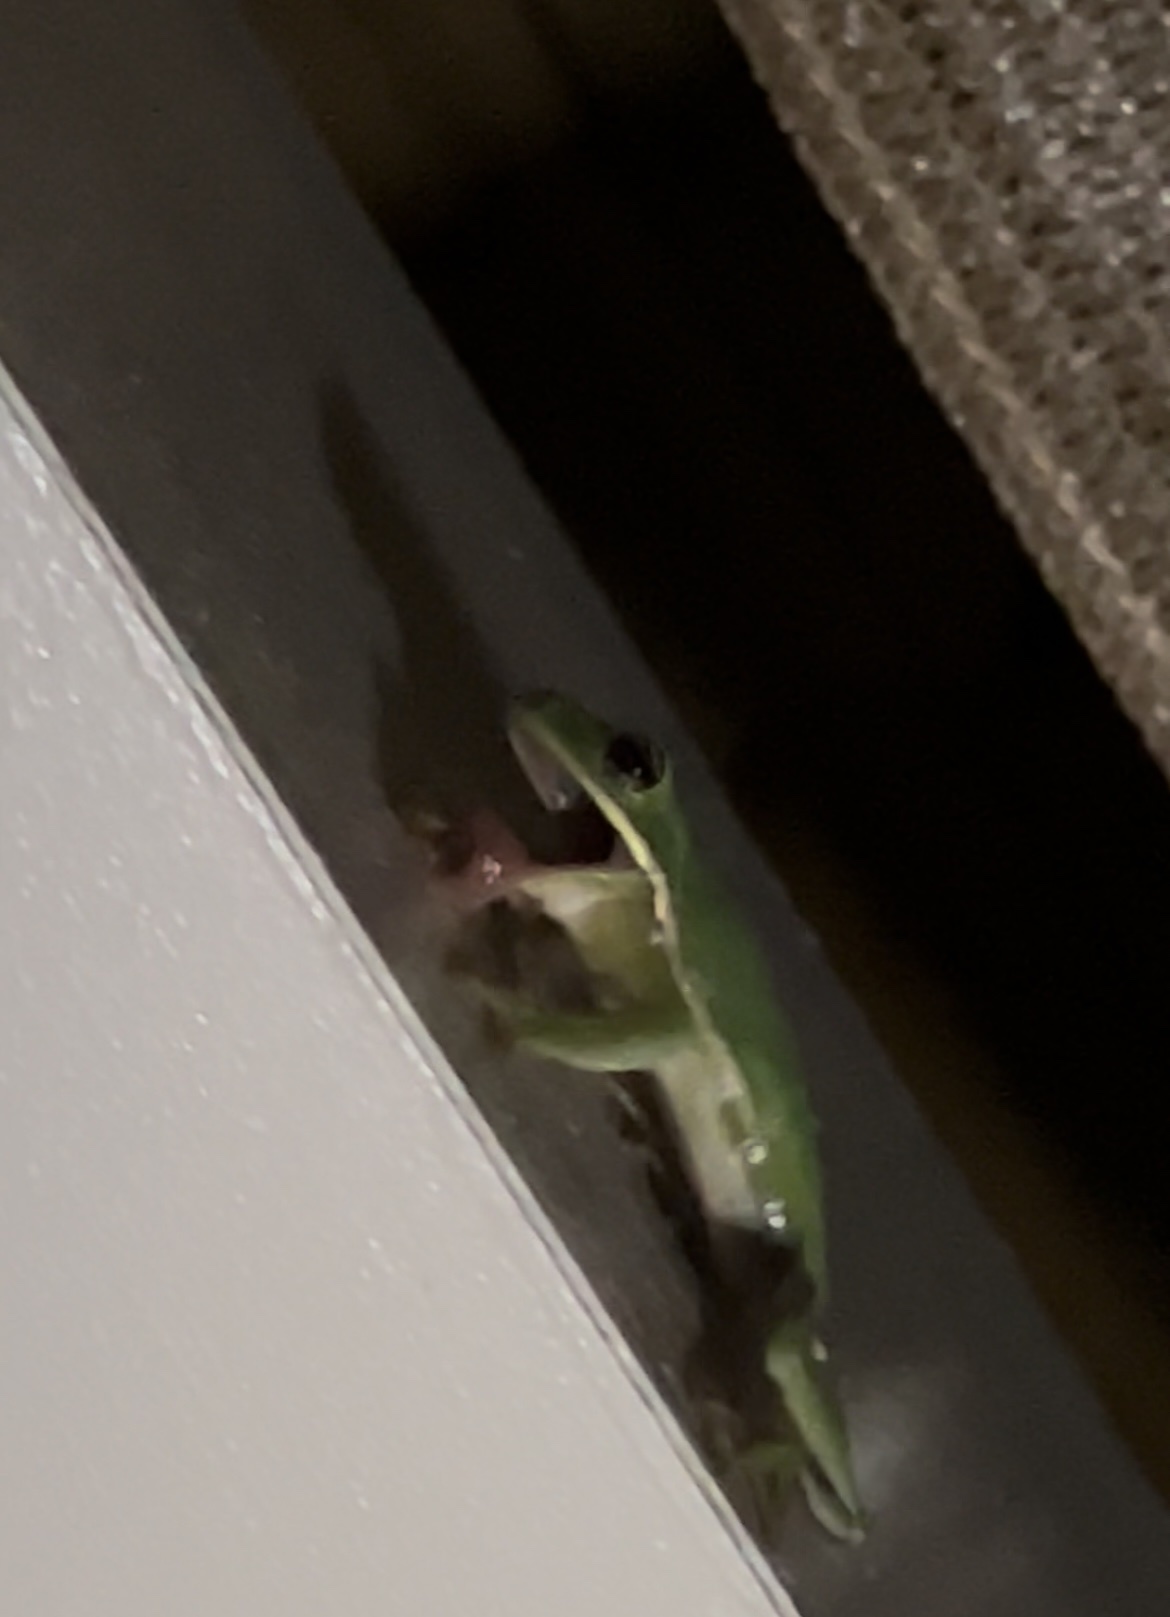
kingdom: Animalia
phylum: Chordata
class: Amphibia
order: Anura
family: Hylidae
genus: Dryophytes
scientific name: Dryophytes cinereus
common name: Green treefrog
